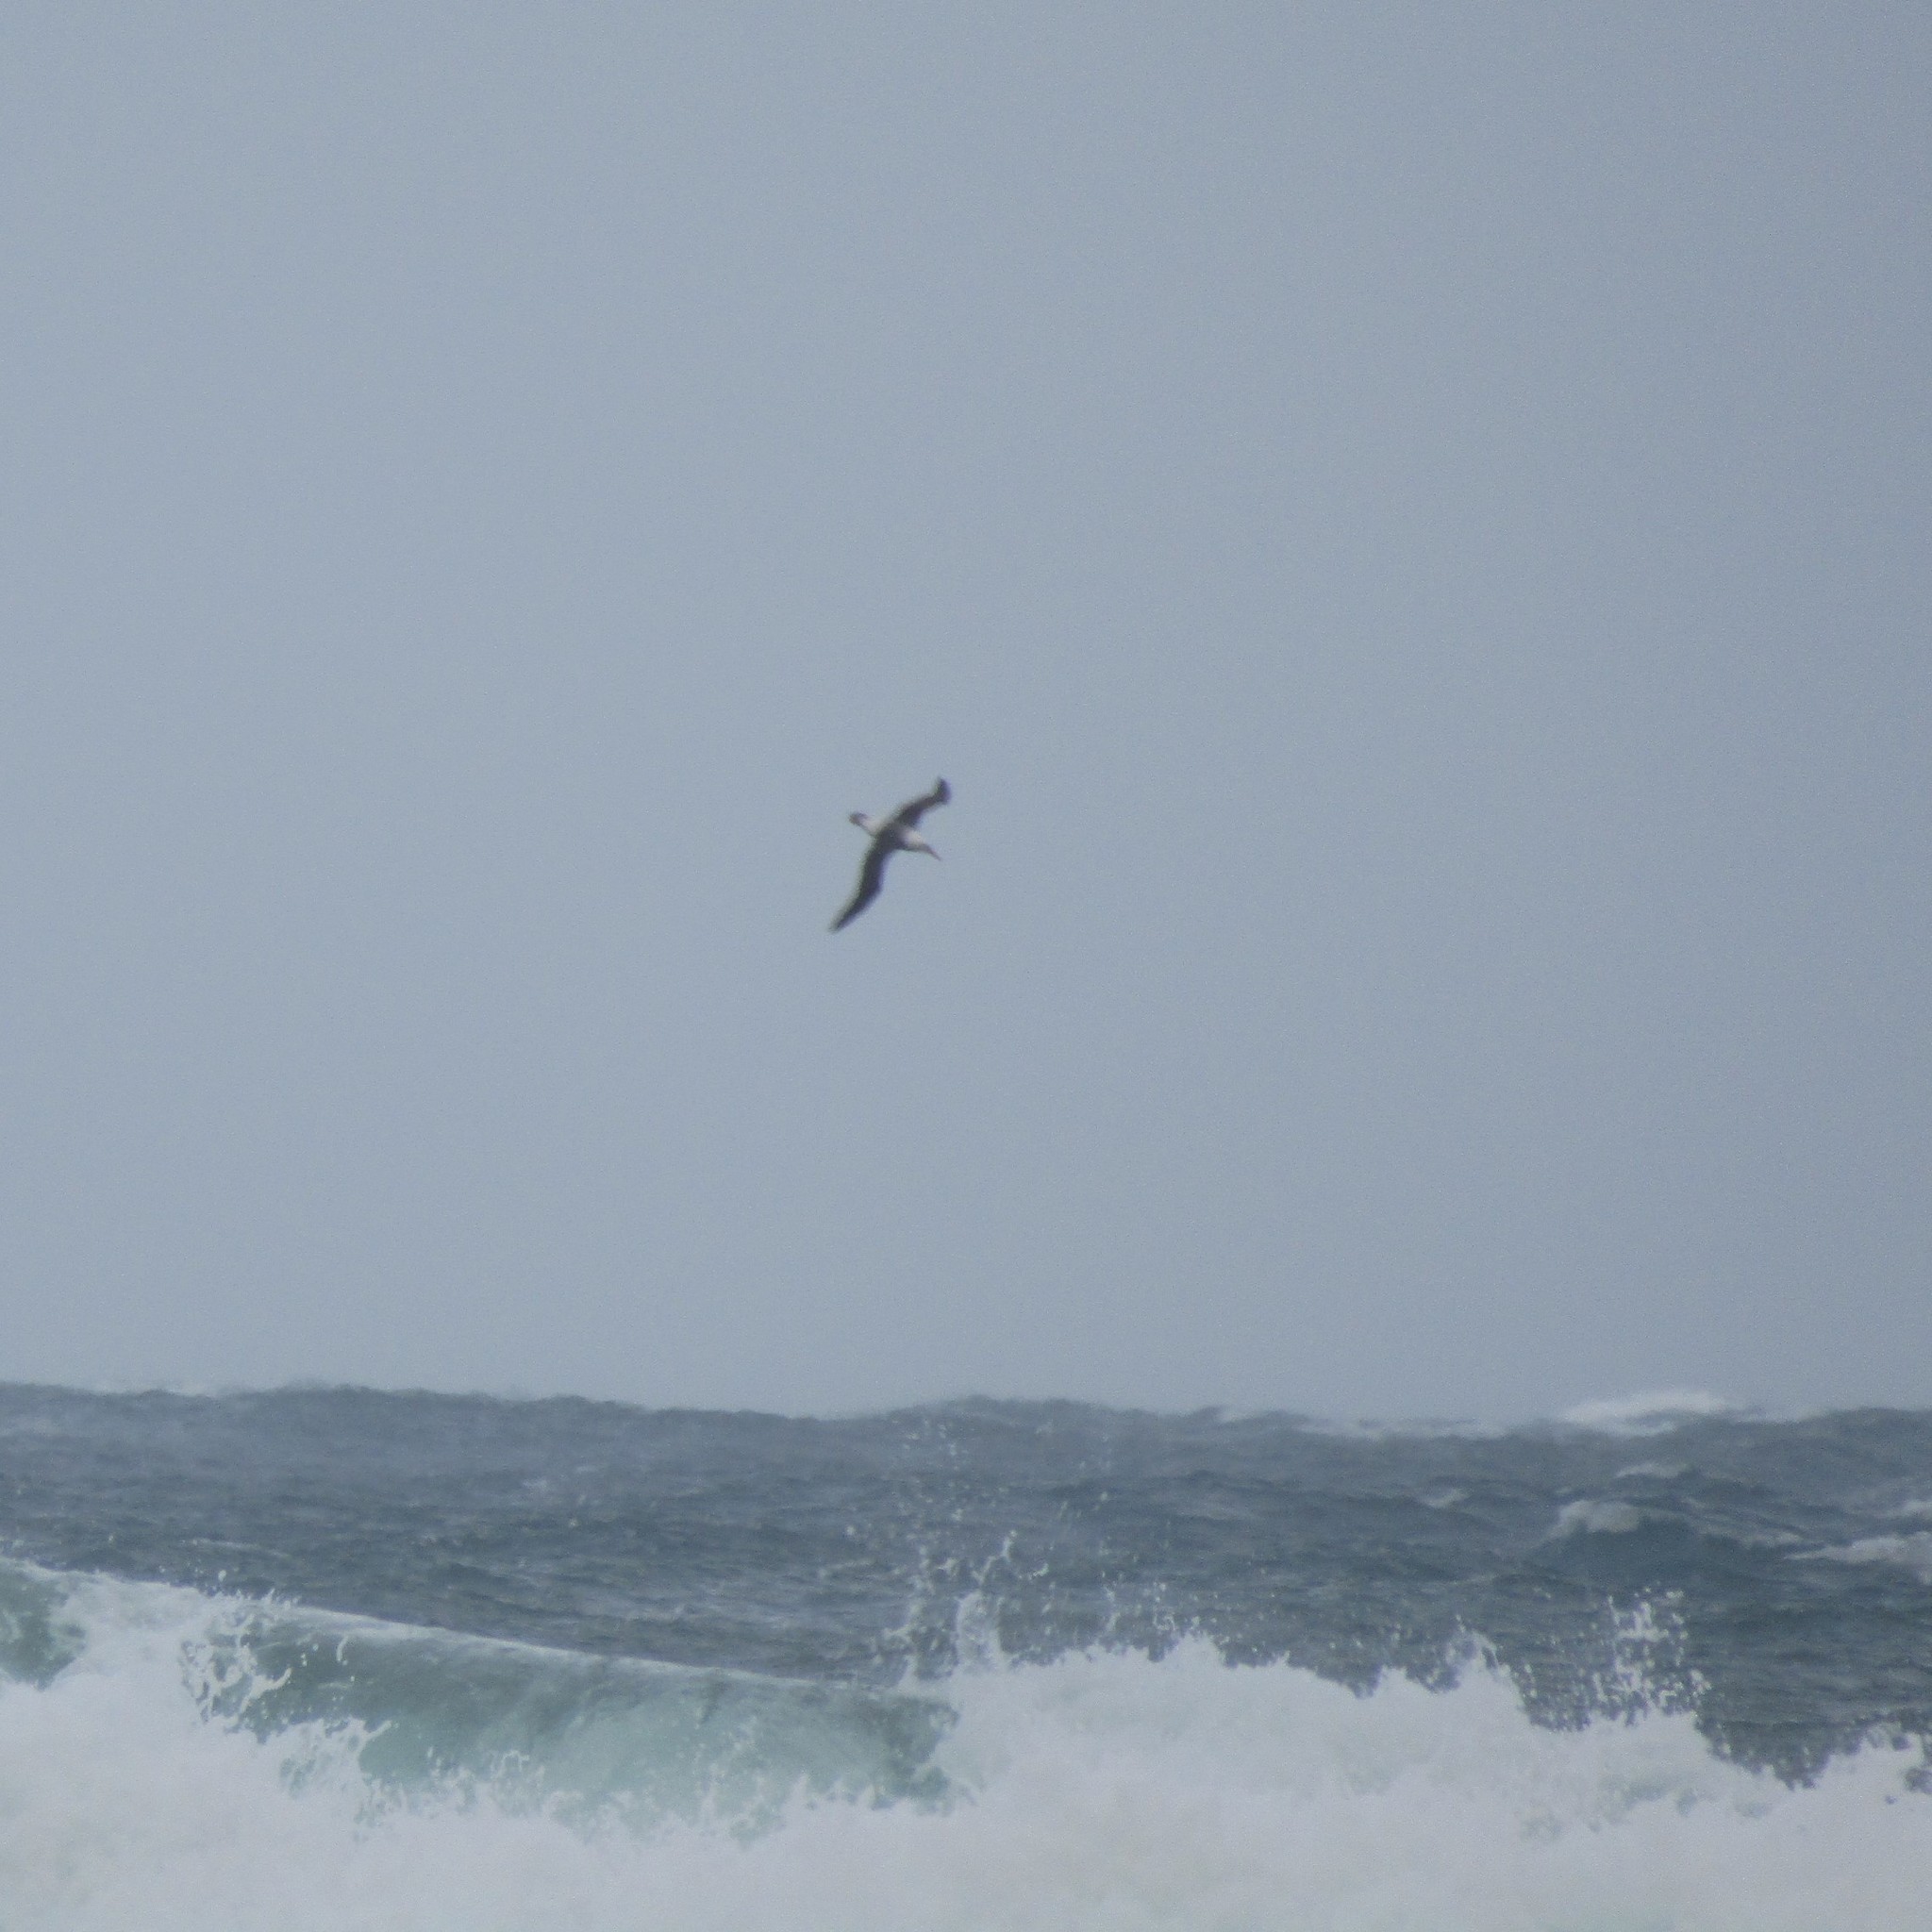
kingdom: Animalia
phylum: Chordata
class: Aves
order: Procellariiformes
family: Diomedeidae
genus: Thalassarche
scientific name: Thalassarche
